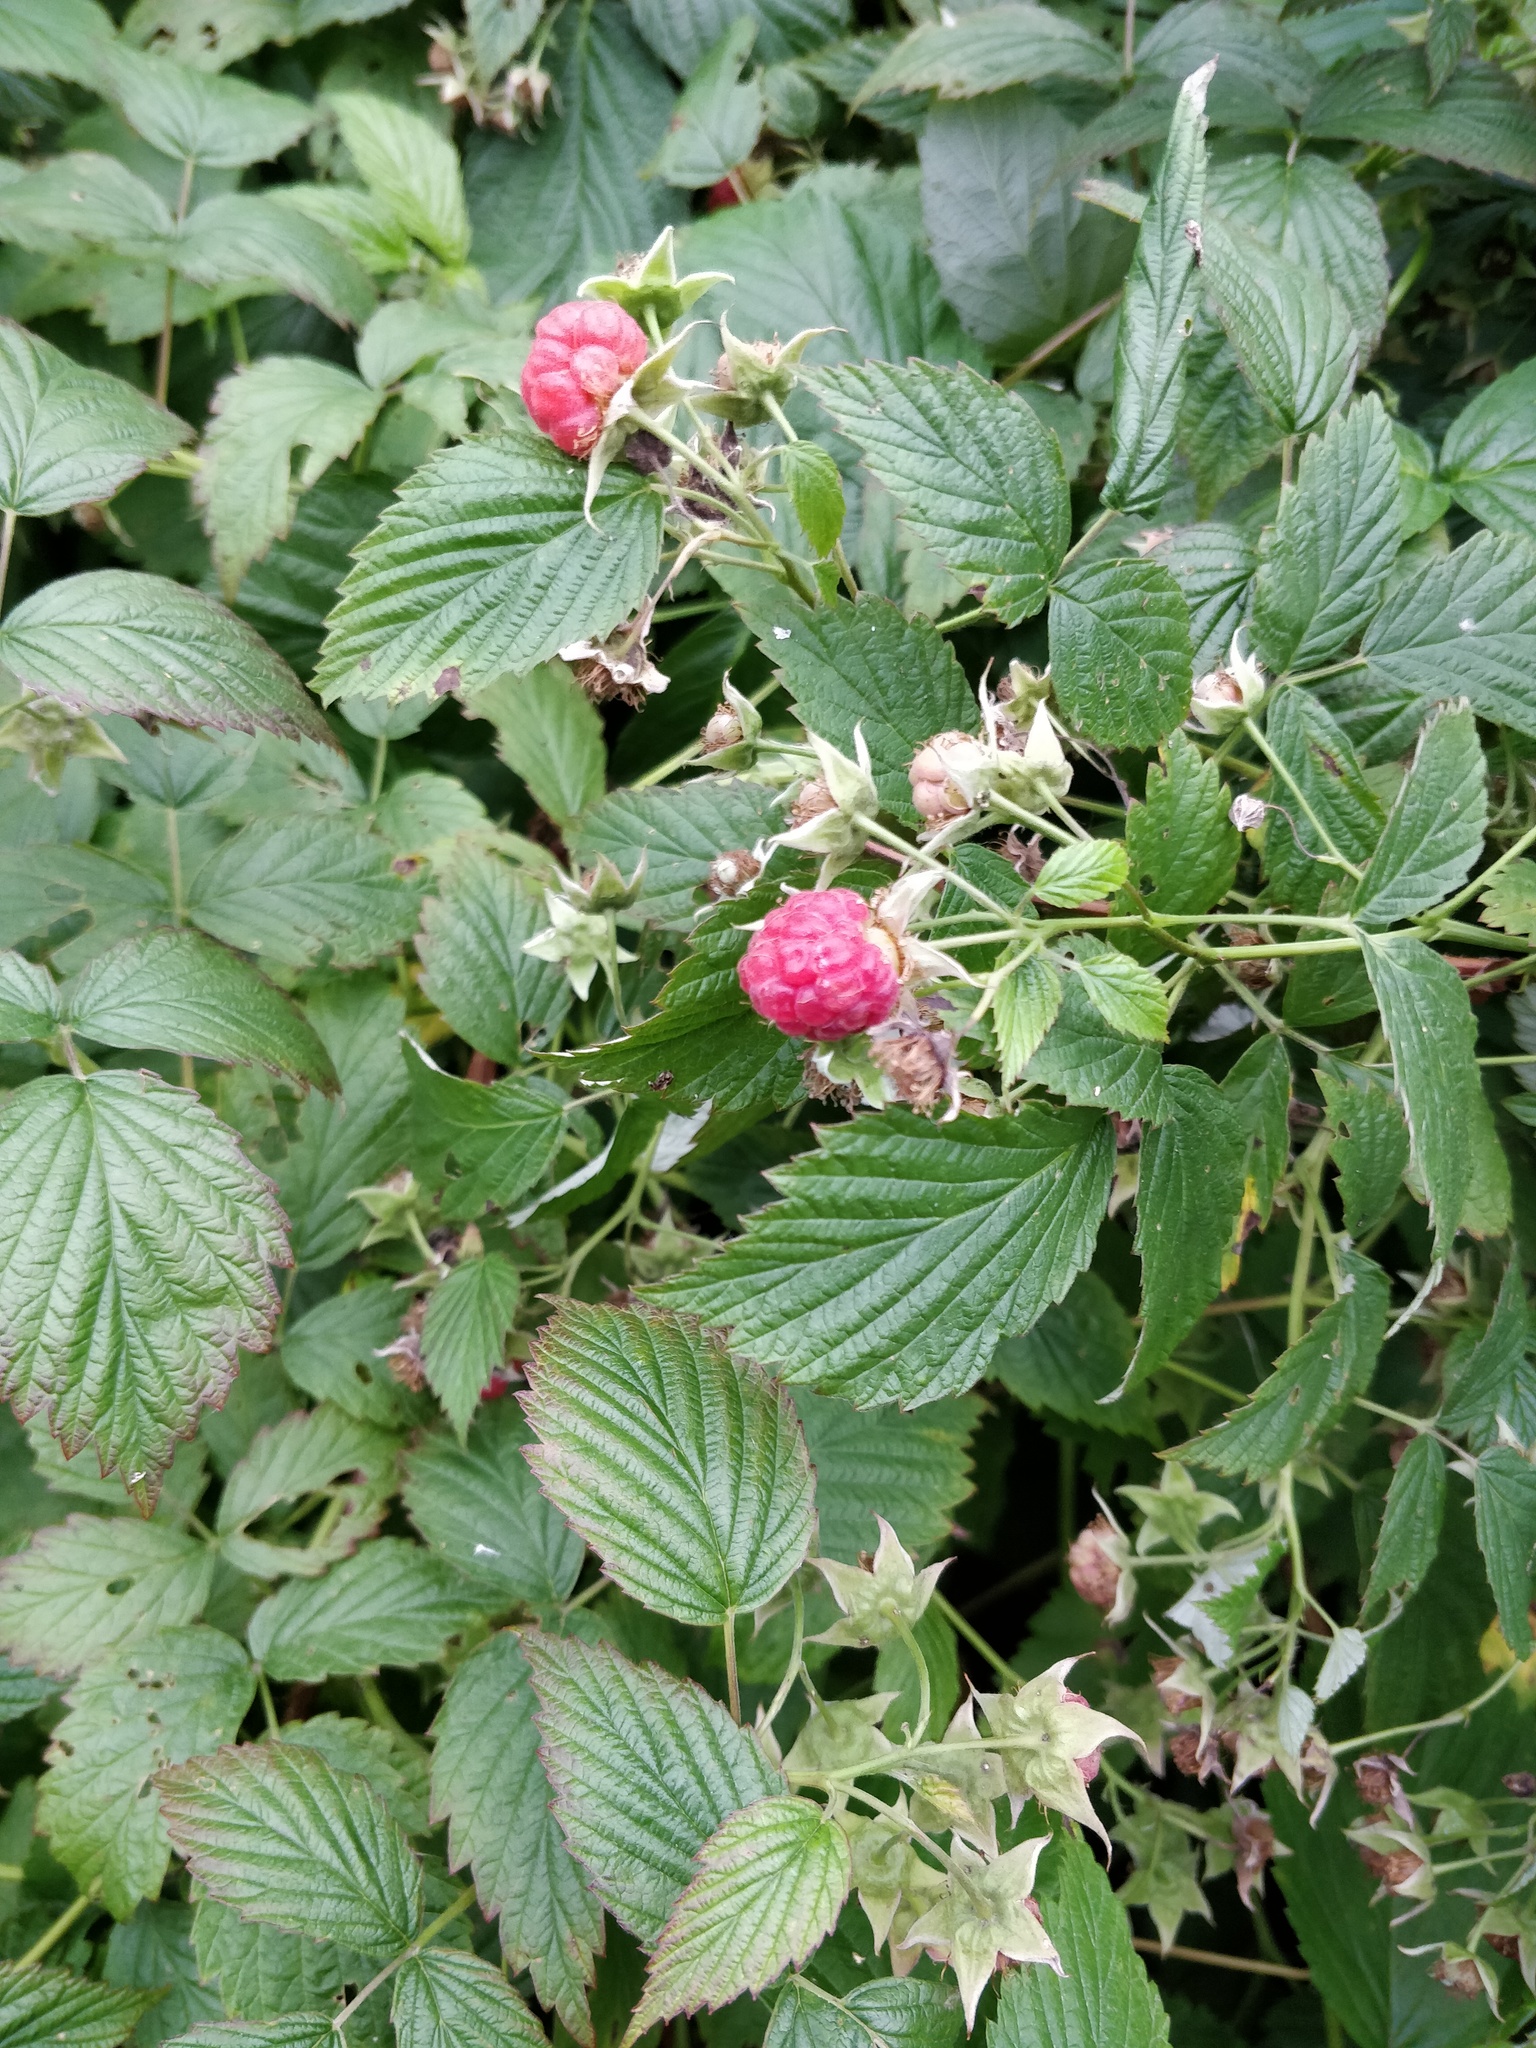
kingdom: Plantae
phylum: Tracheophyta
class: Magnoliopsida
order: Rosales
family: Rosaceae
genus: Rubus
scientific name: Rubus idaeus
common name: Raspberry
